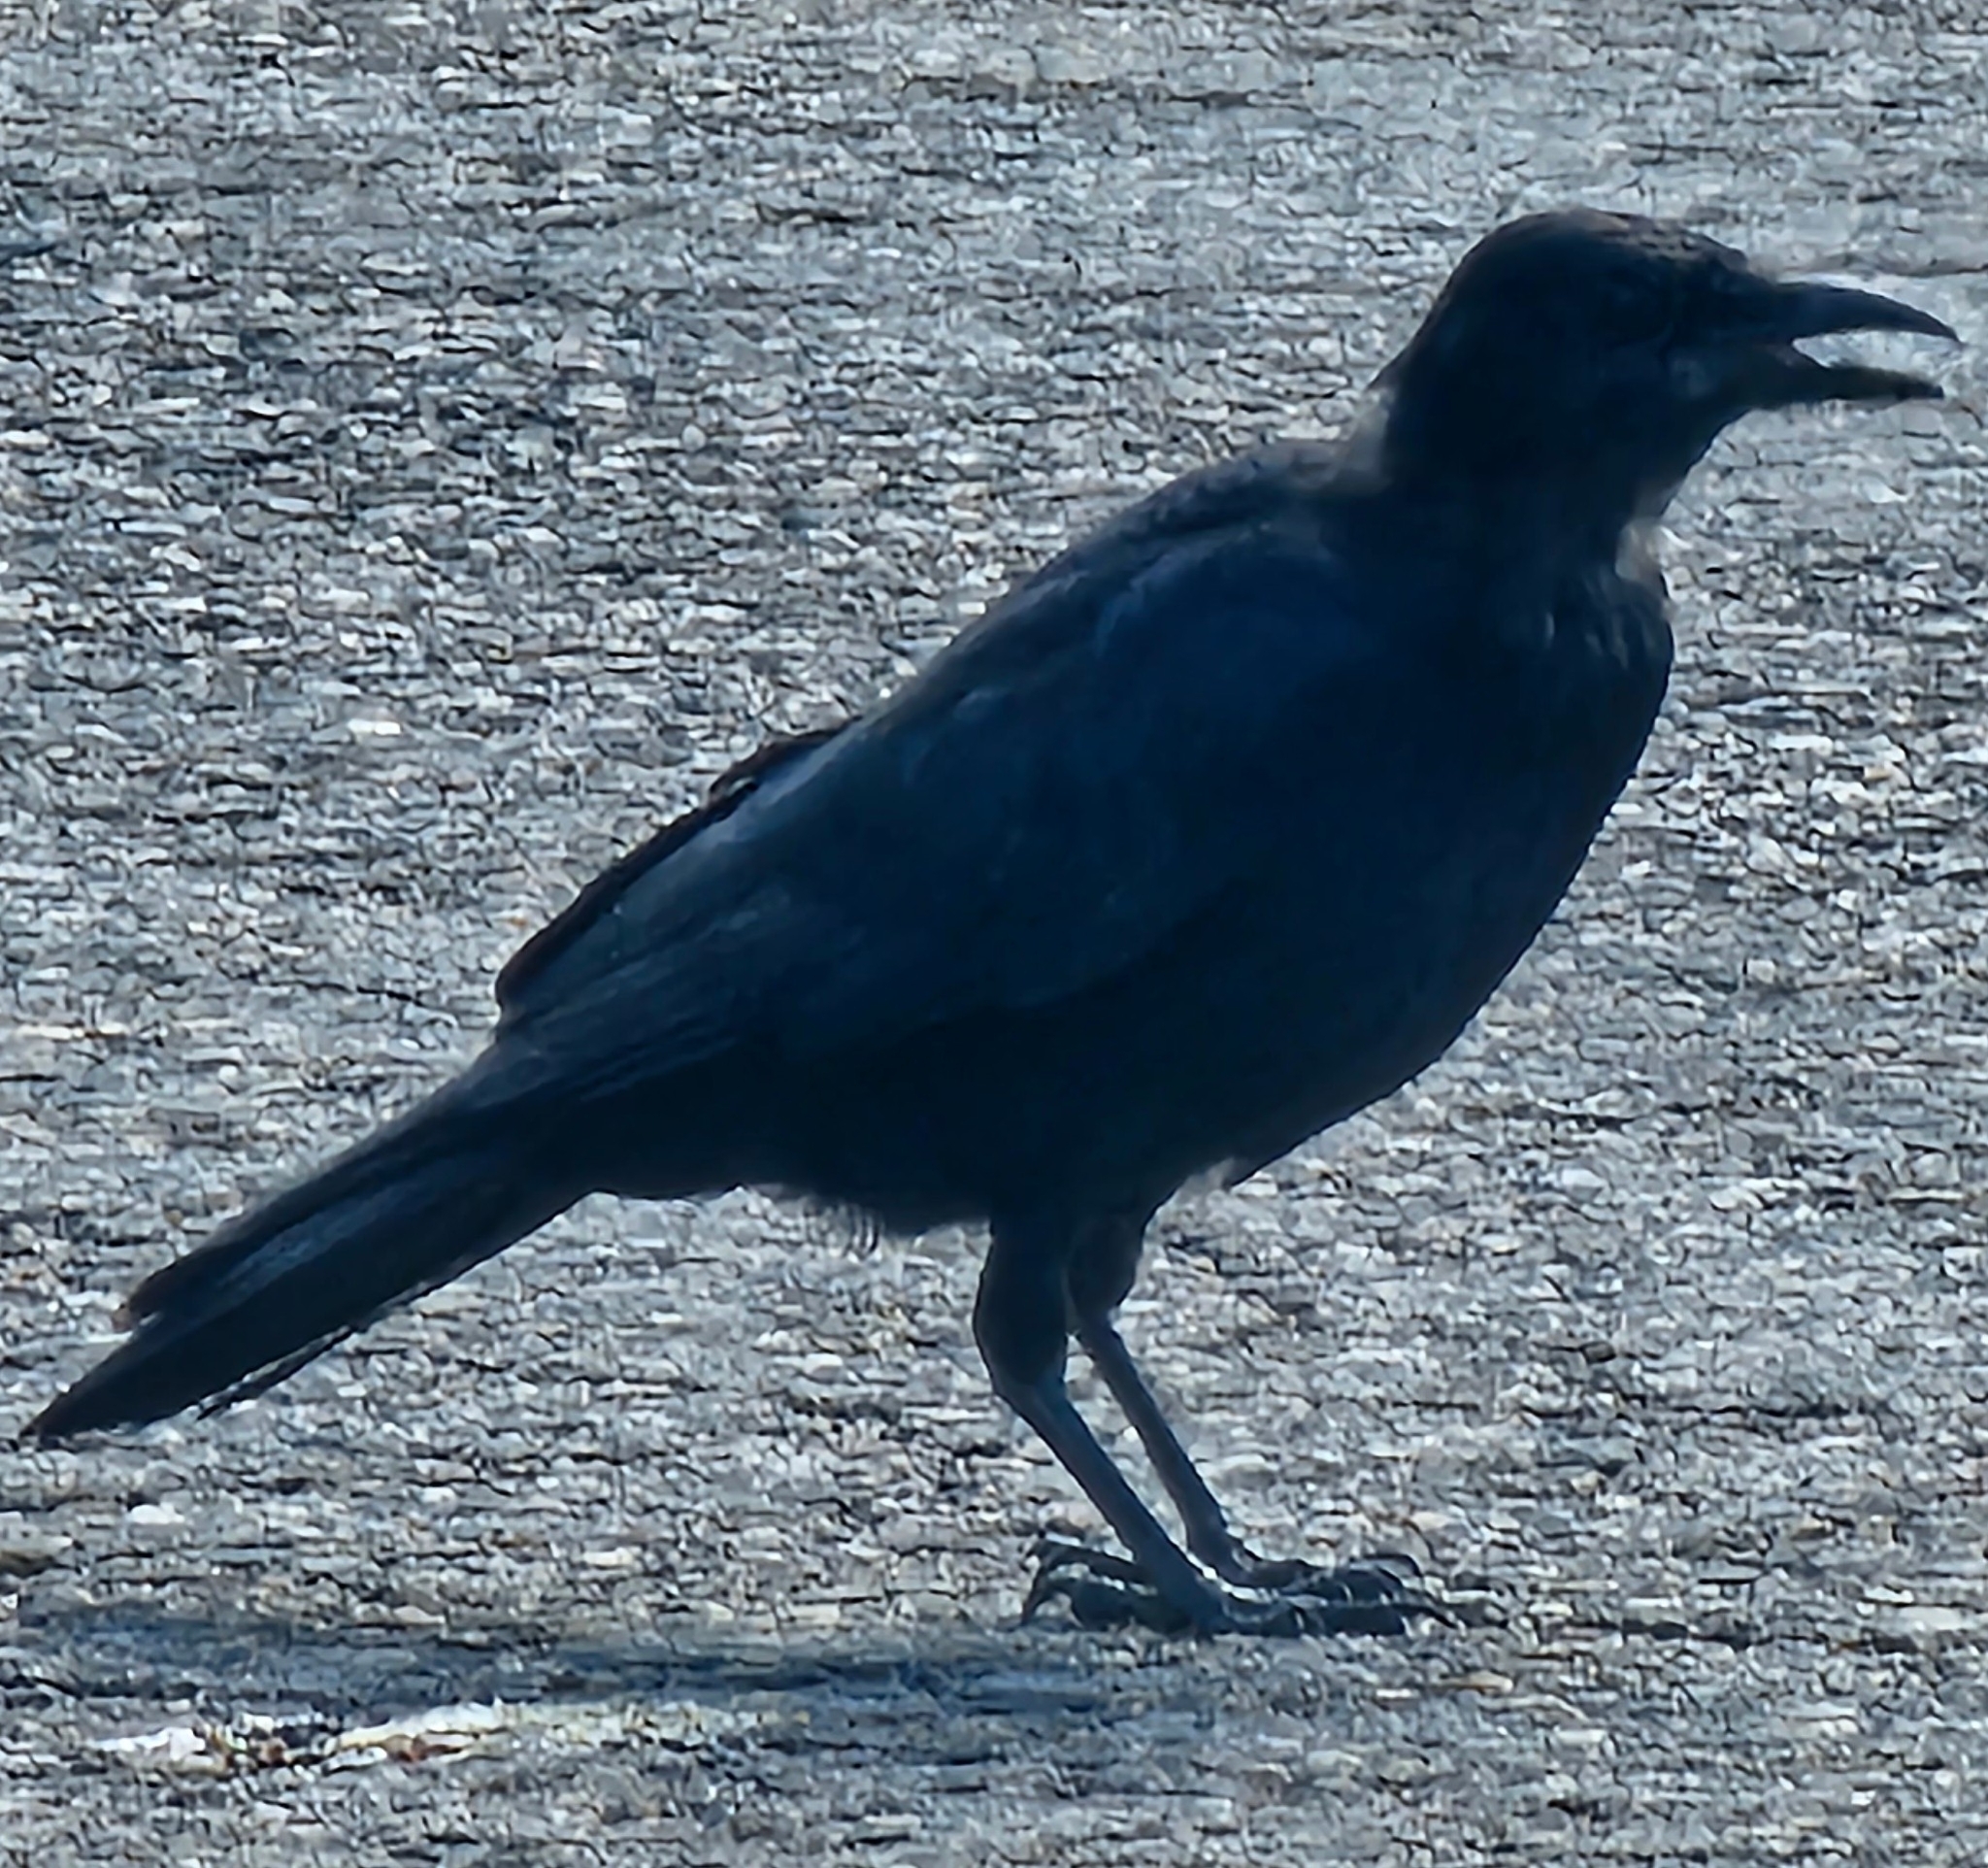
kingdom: Animalia
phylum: Chordata
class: Aves
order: Passeriformes
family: Corvidae
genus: Corvus
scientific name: Corvus brachyrhynchos
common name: American crow
